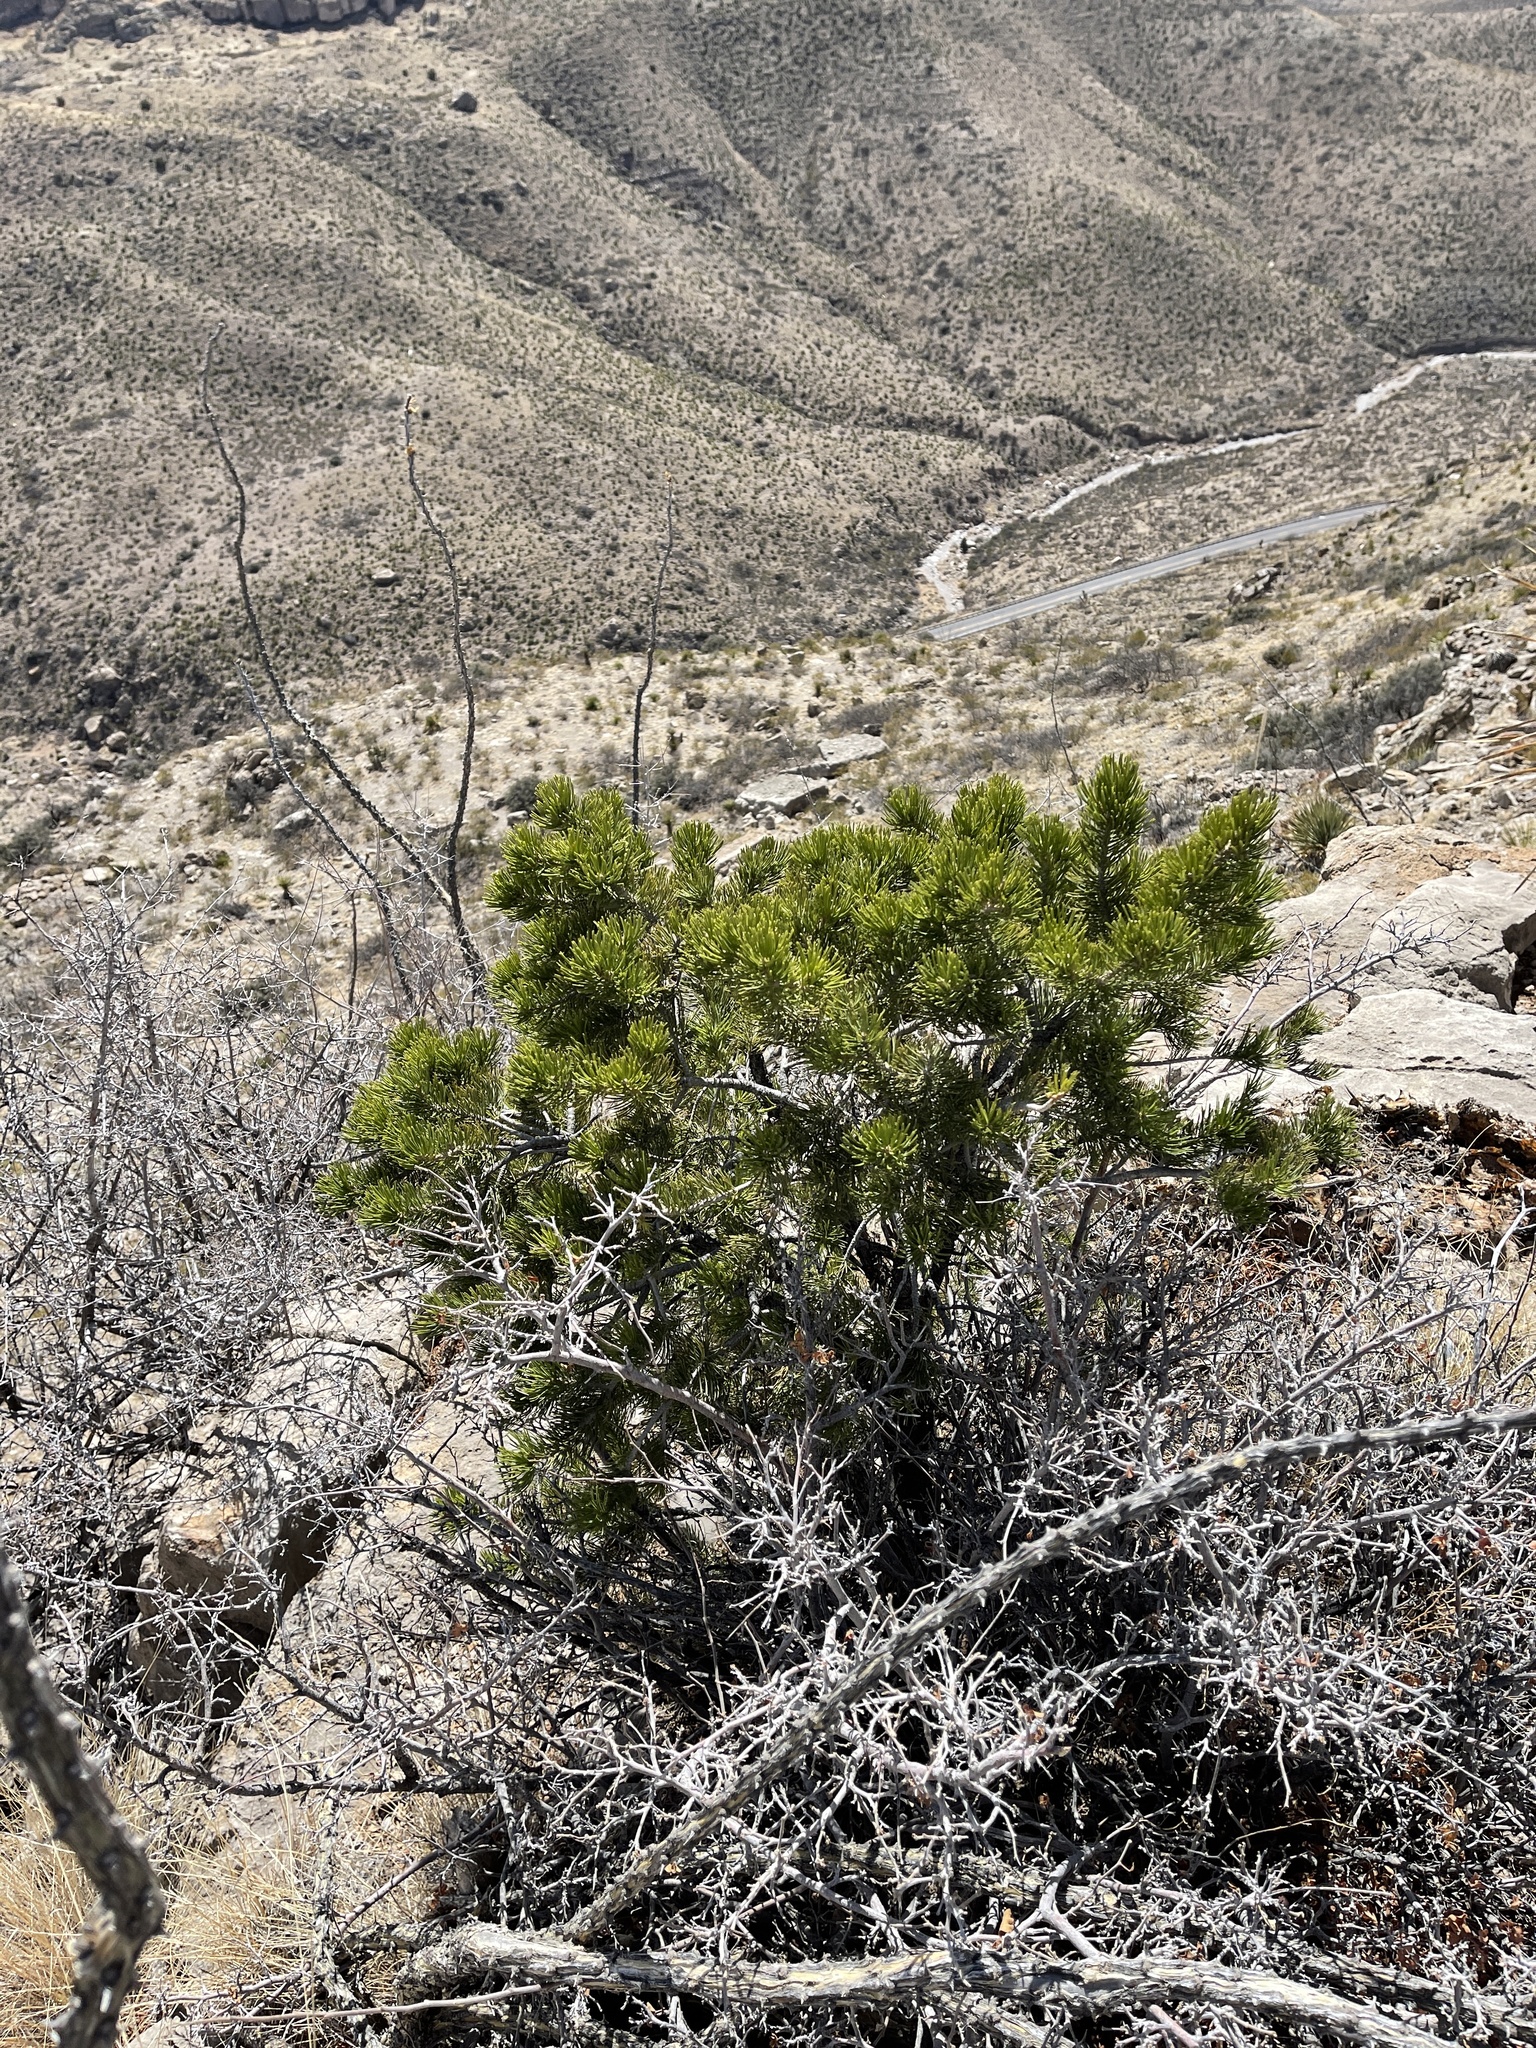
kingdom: Plantae
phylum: Tracheophyta
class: Pinopsida
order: Pinales
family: Pinaceae
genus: Pinus
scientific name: Pinus edulis
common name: Colorado pinyon
